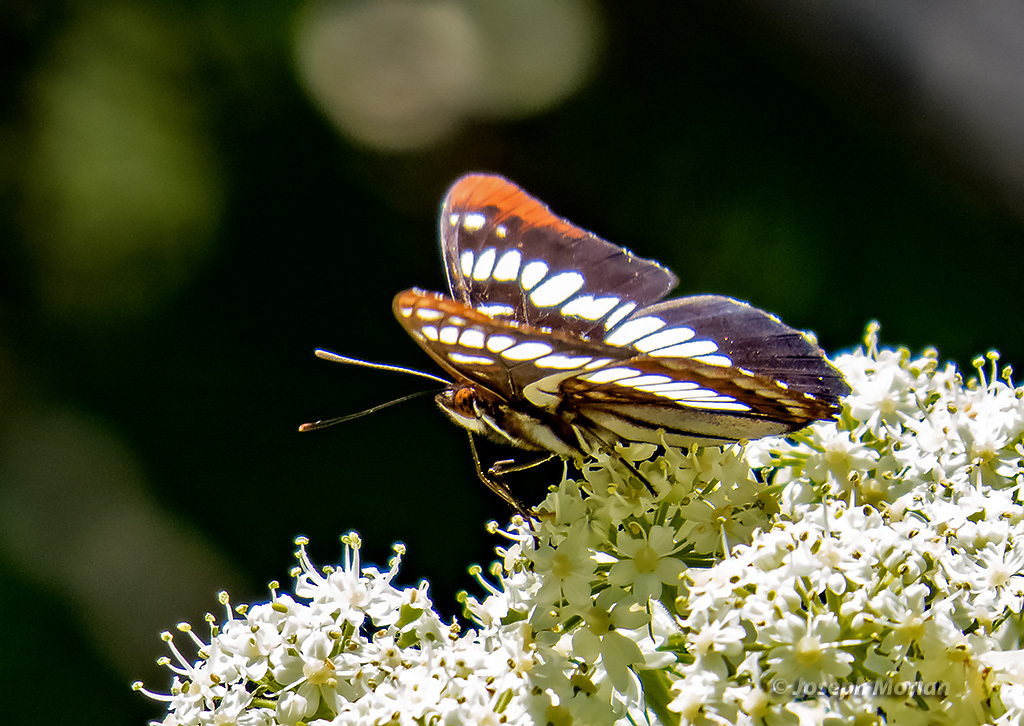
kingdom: Animalia
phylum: Arthropoda
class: Insecta
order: Lepidoptera
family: Nymphalidae
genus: Limenitis
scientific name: Limenitis lorquini
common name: Lorquin's admiral
